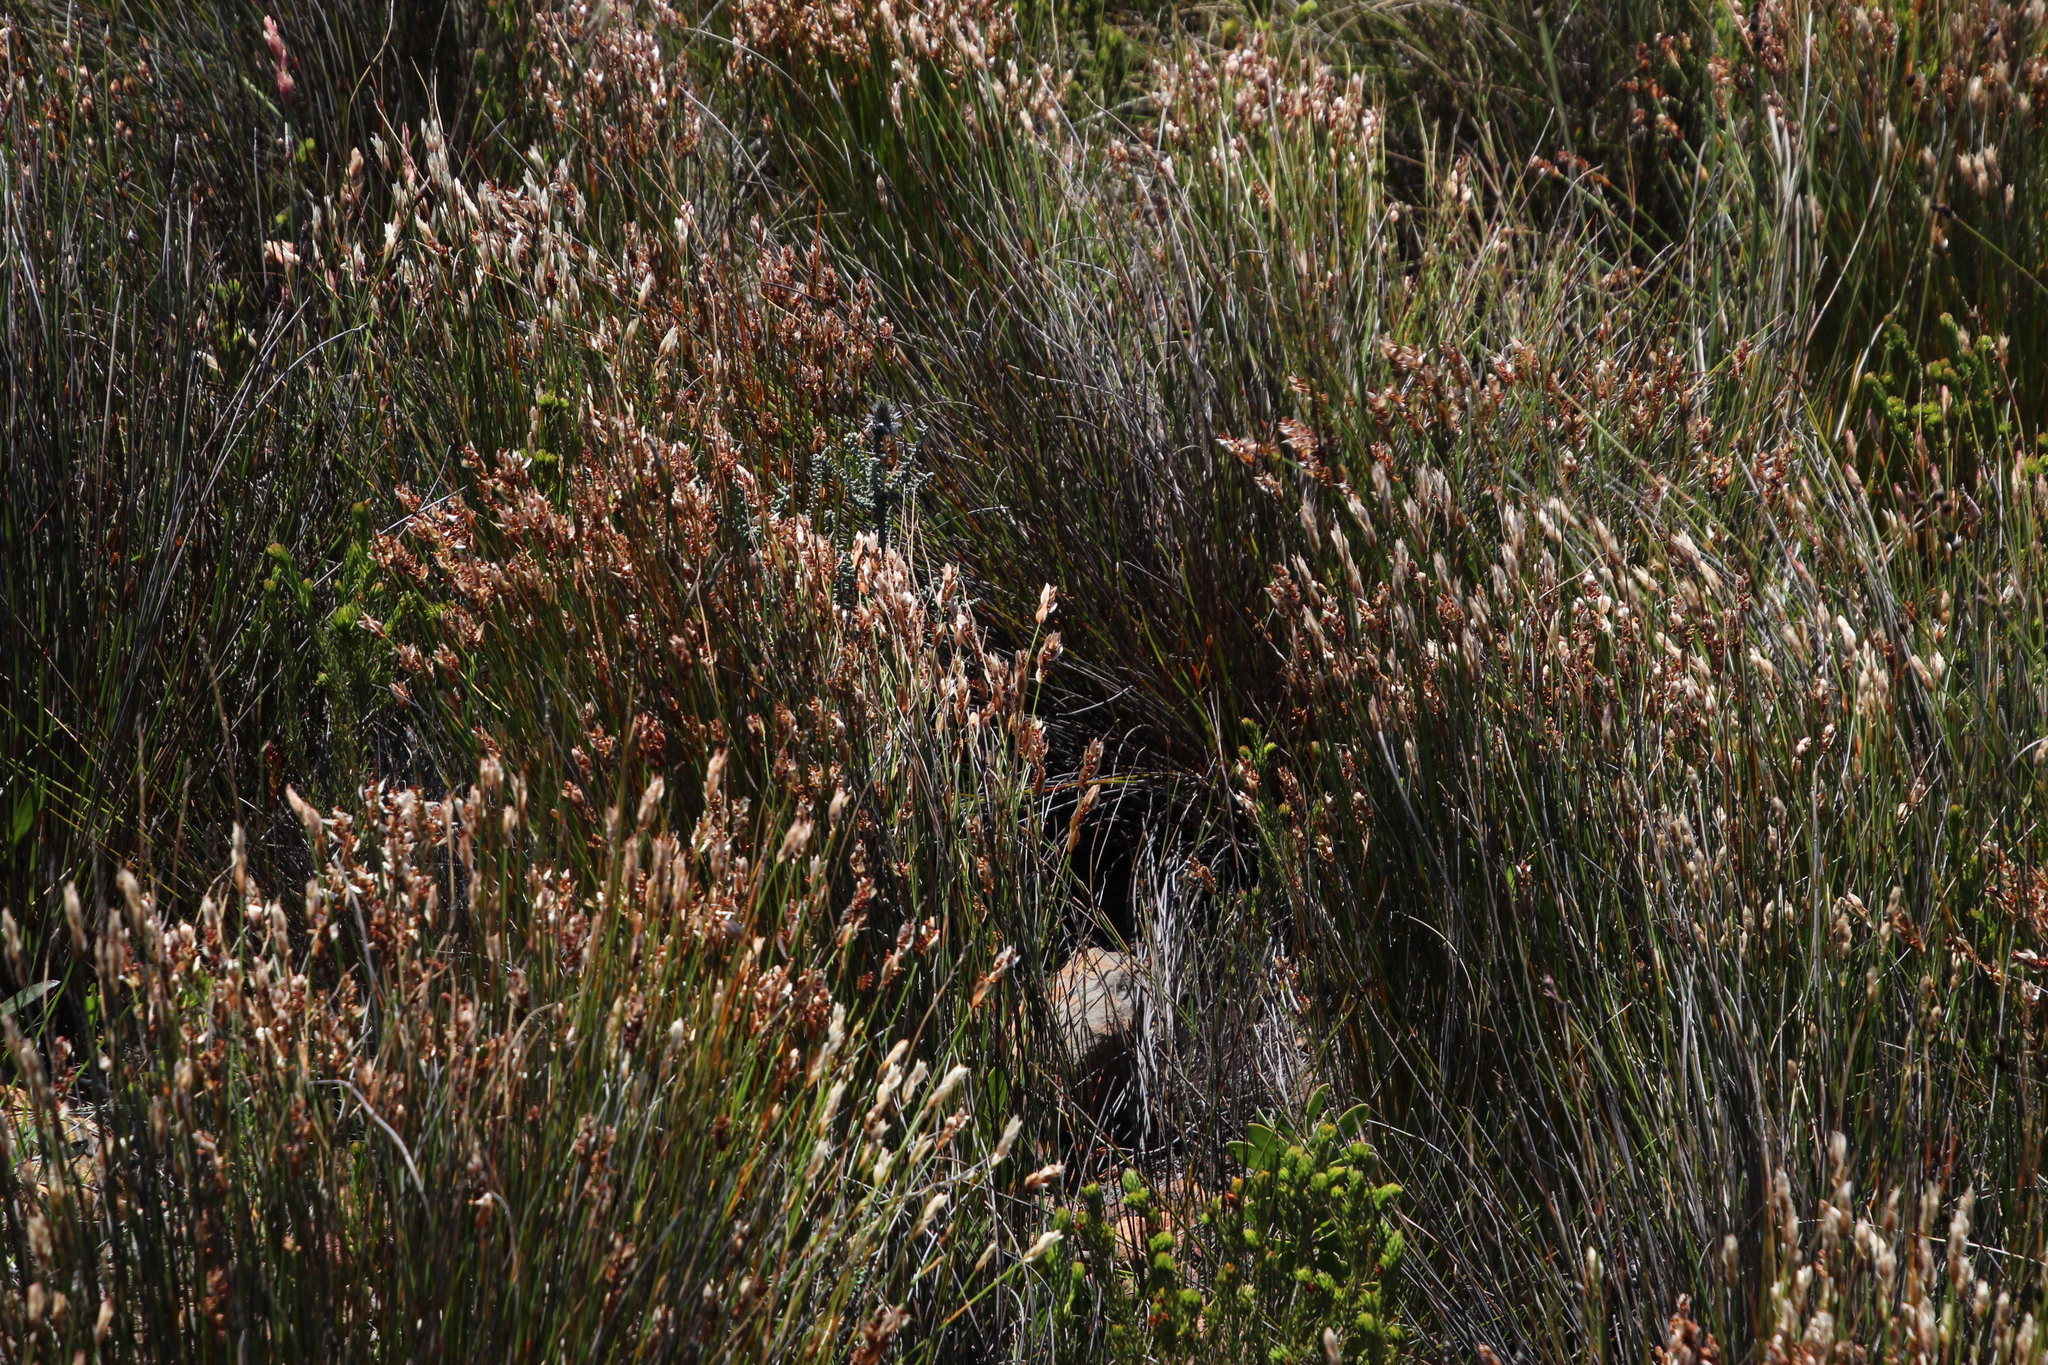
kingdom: Plantae
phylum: Tracheophyta
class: Liliopsida
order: Poales
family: Restionaceae
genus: Elegia
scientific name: Elegia filacea
